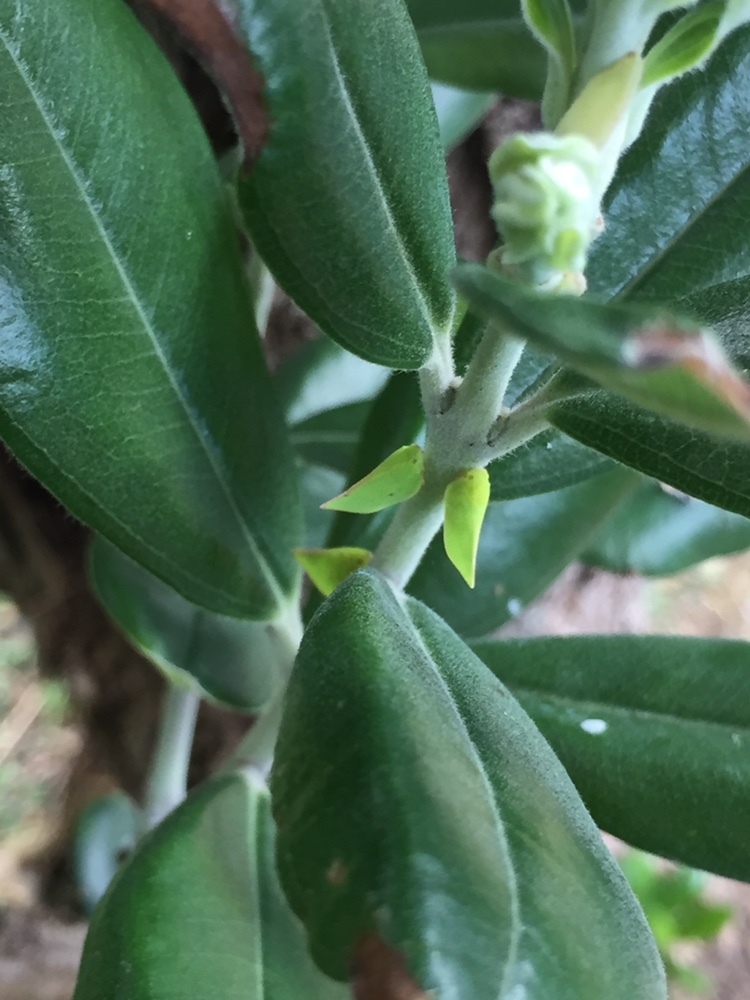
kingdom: Animalia
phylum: Arthropoda
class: Insecta
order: Hemiptera
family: Flatidae
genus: Siphanta
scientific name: Siphanta acuta
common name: Torpedo bug
